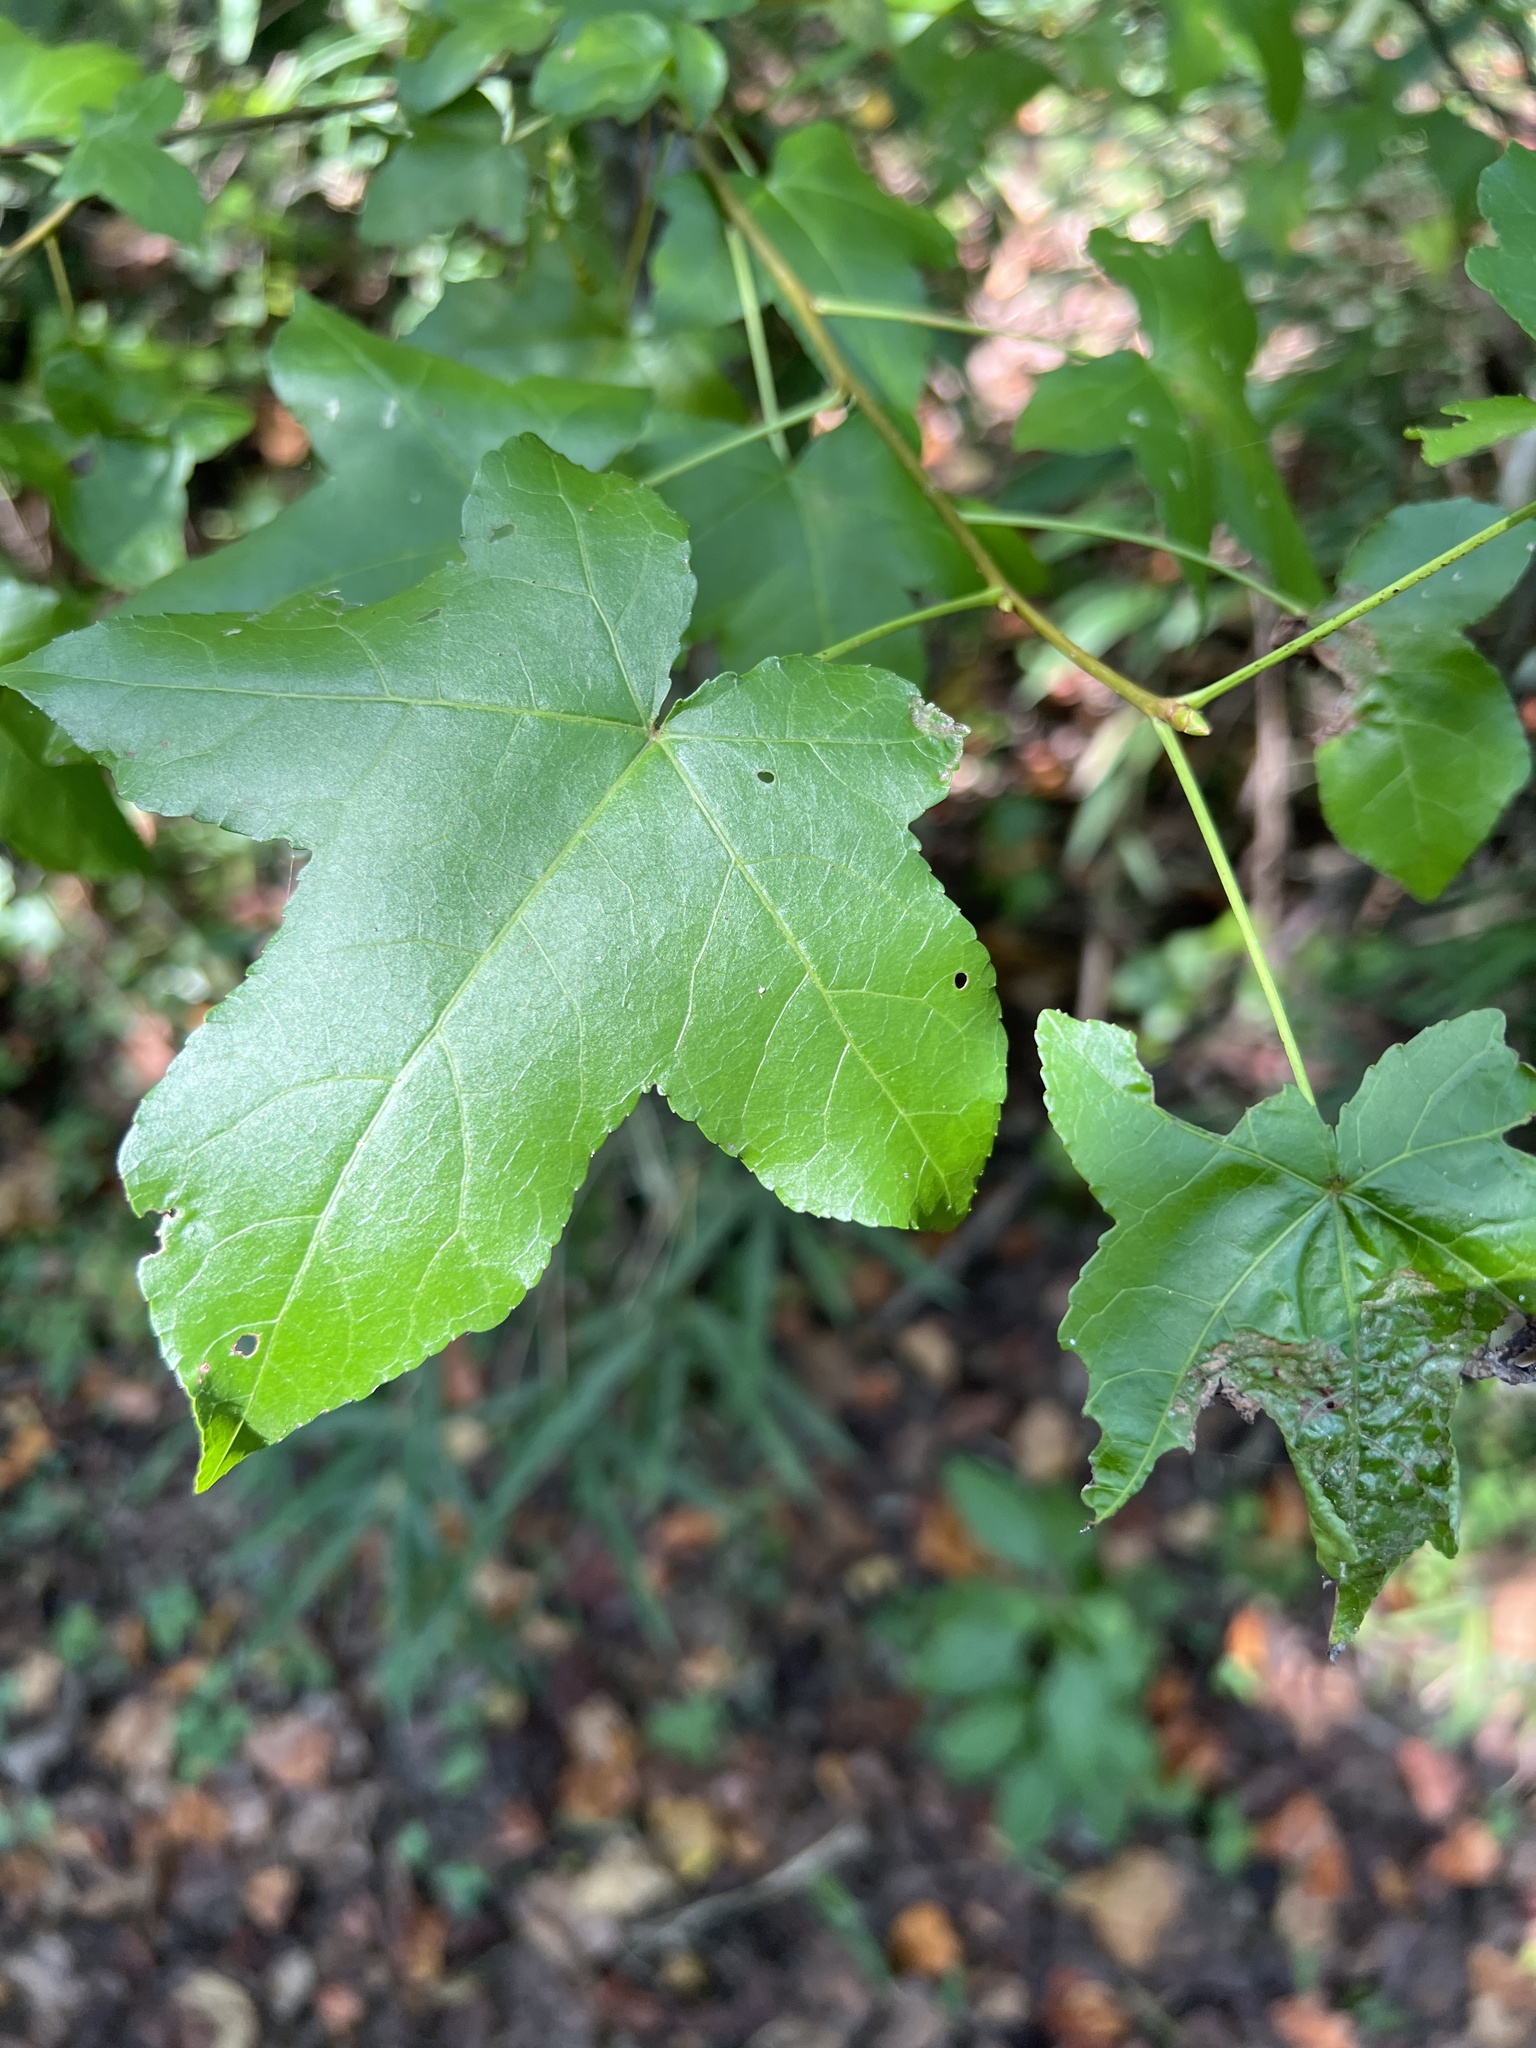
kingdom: Plantae
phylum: Tracheophyta
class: Magnoliopsida
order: Saxifragales
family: Altingiaceae
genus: Liquidambar
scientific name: Liquidambar styraciflua
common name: Sweet gum
